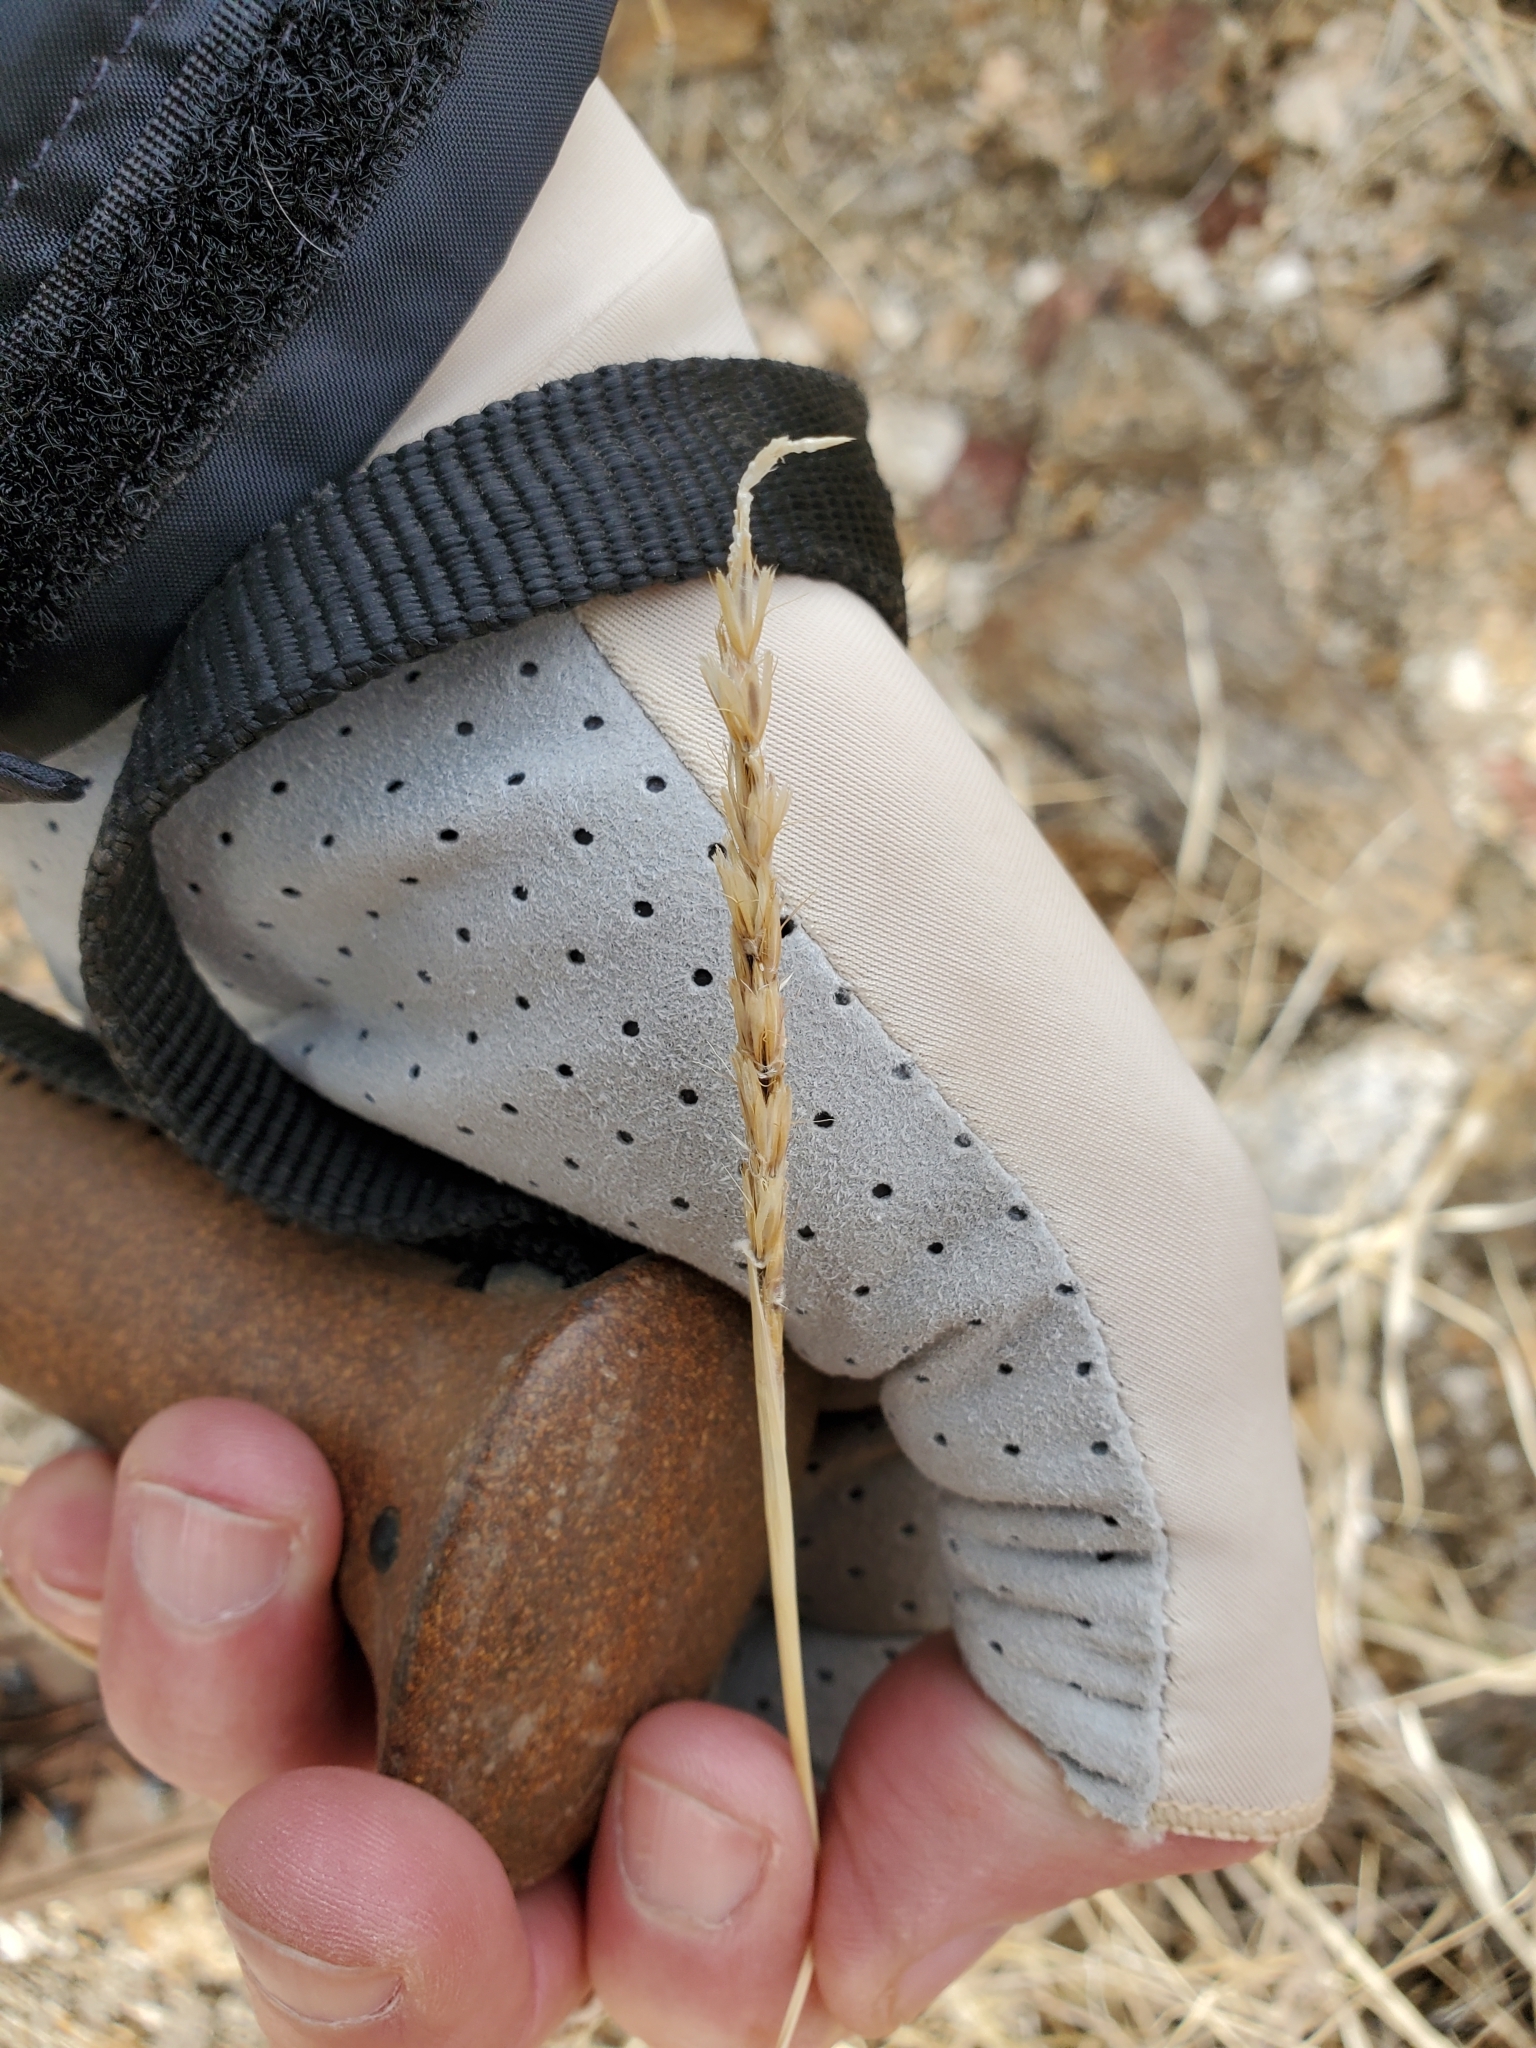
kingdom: Plantae
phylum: Tracheophyta
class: Liliopsida
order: Poales
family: Poaceae
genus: Hilaria
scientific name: Hilaria rigida
